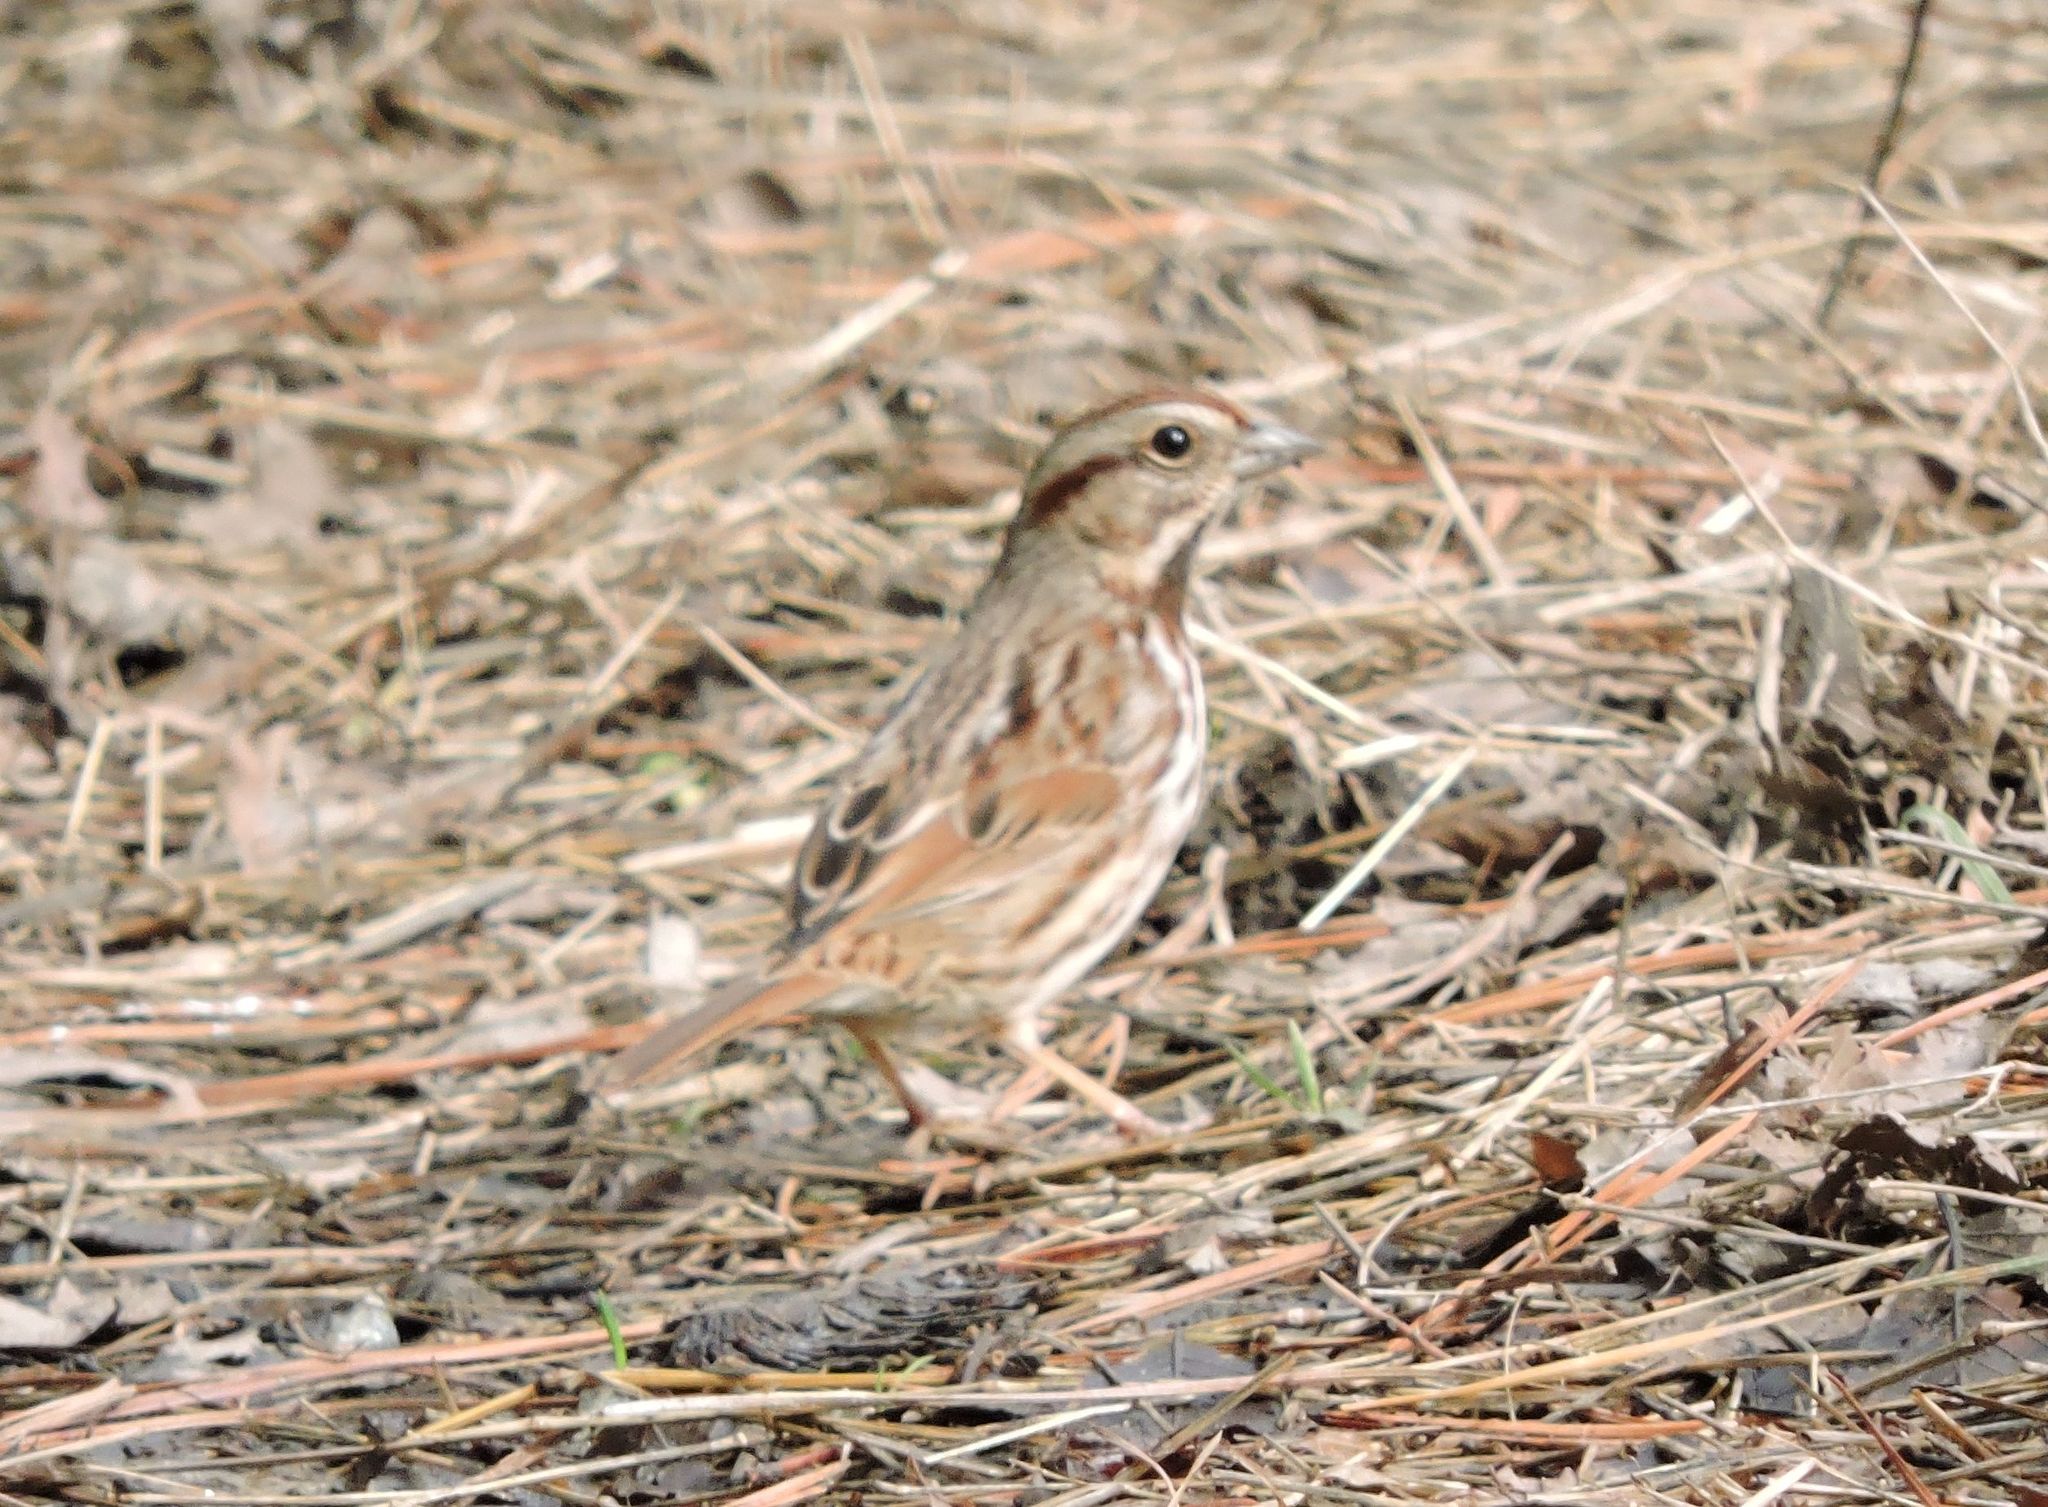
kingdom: Animalia
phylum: Chordata
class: Aves
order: Passeriformes
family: Passerellidae
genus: Melospiza
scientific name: Melospiza melodia
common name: Song sparrow
